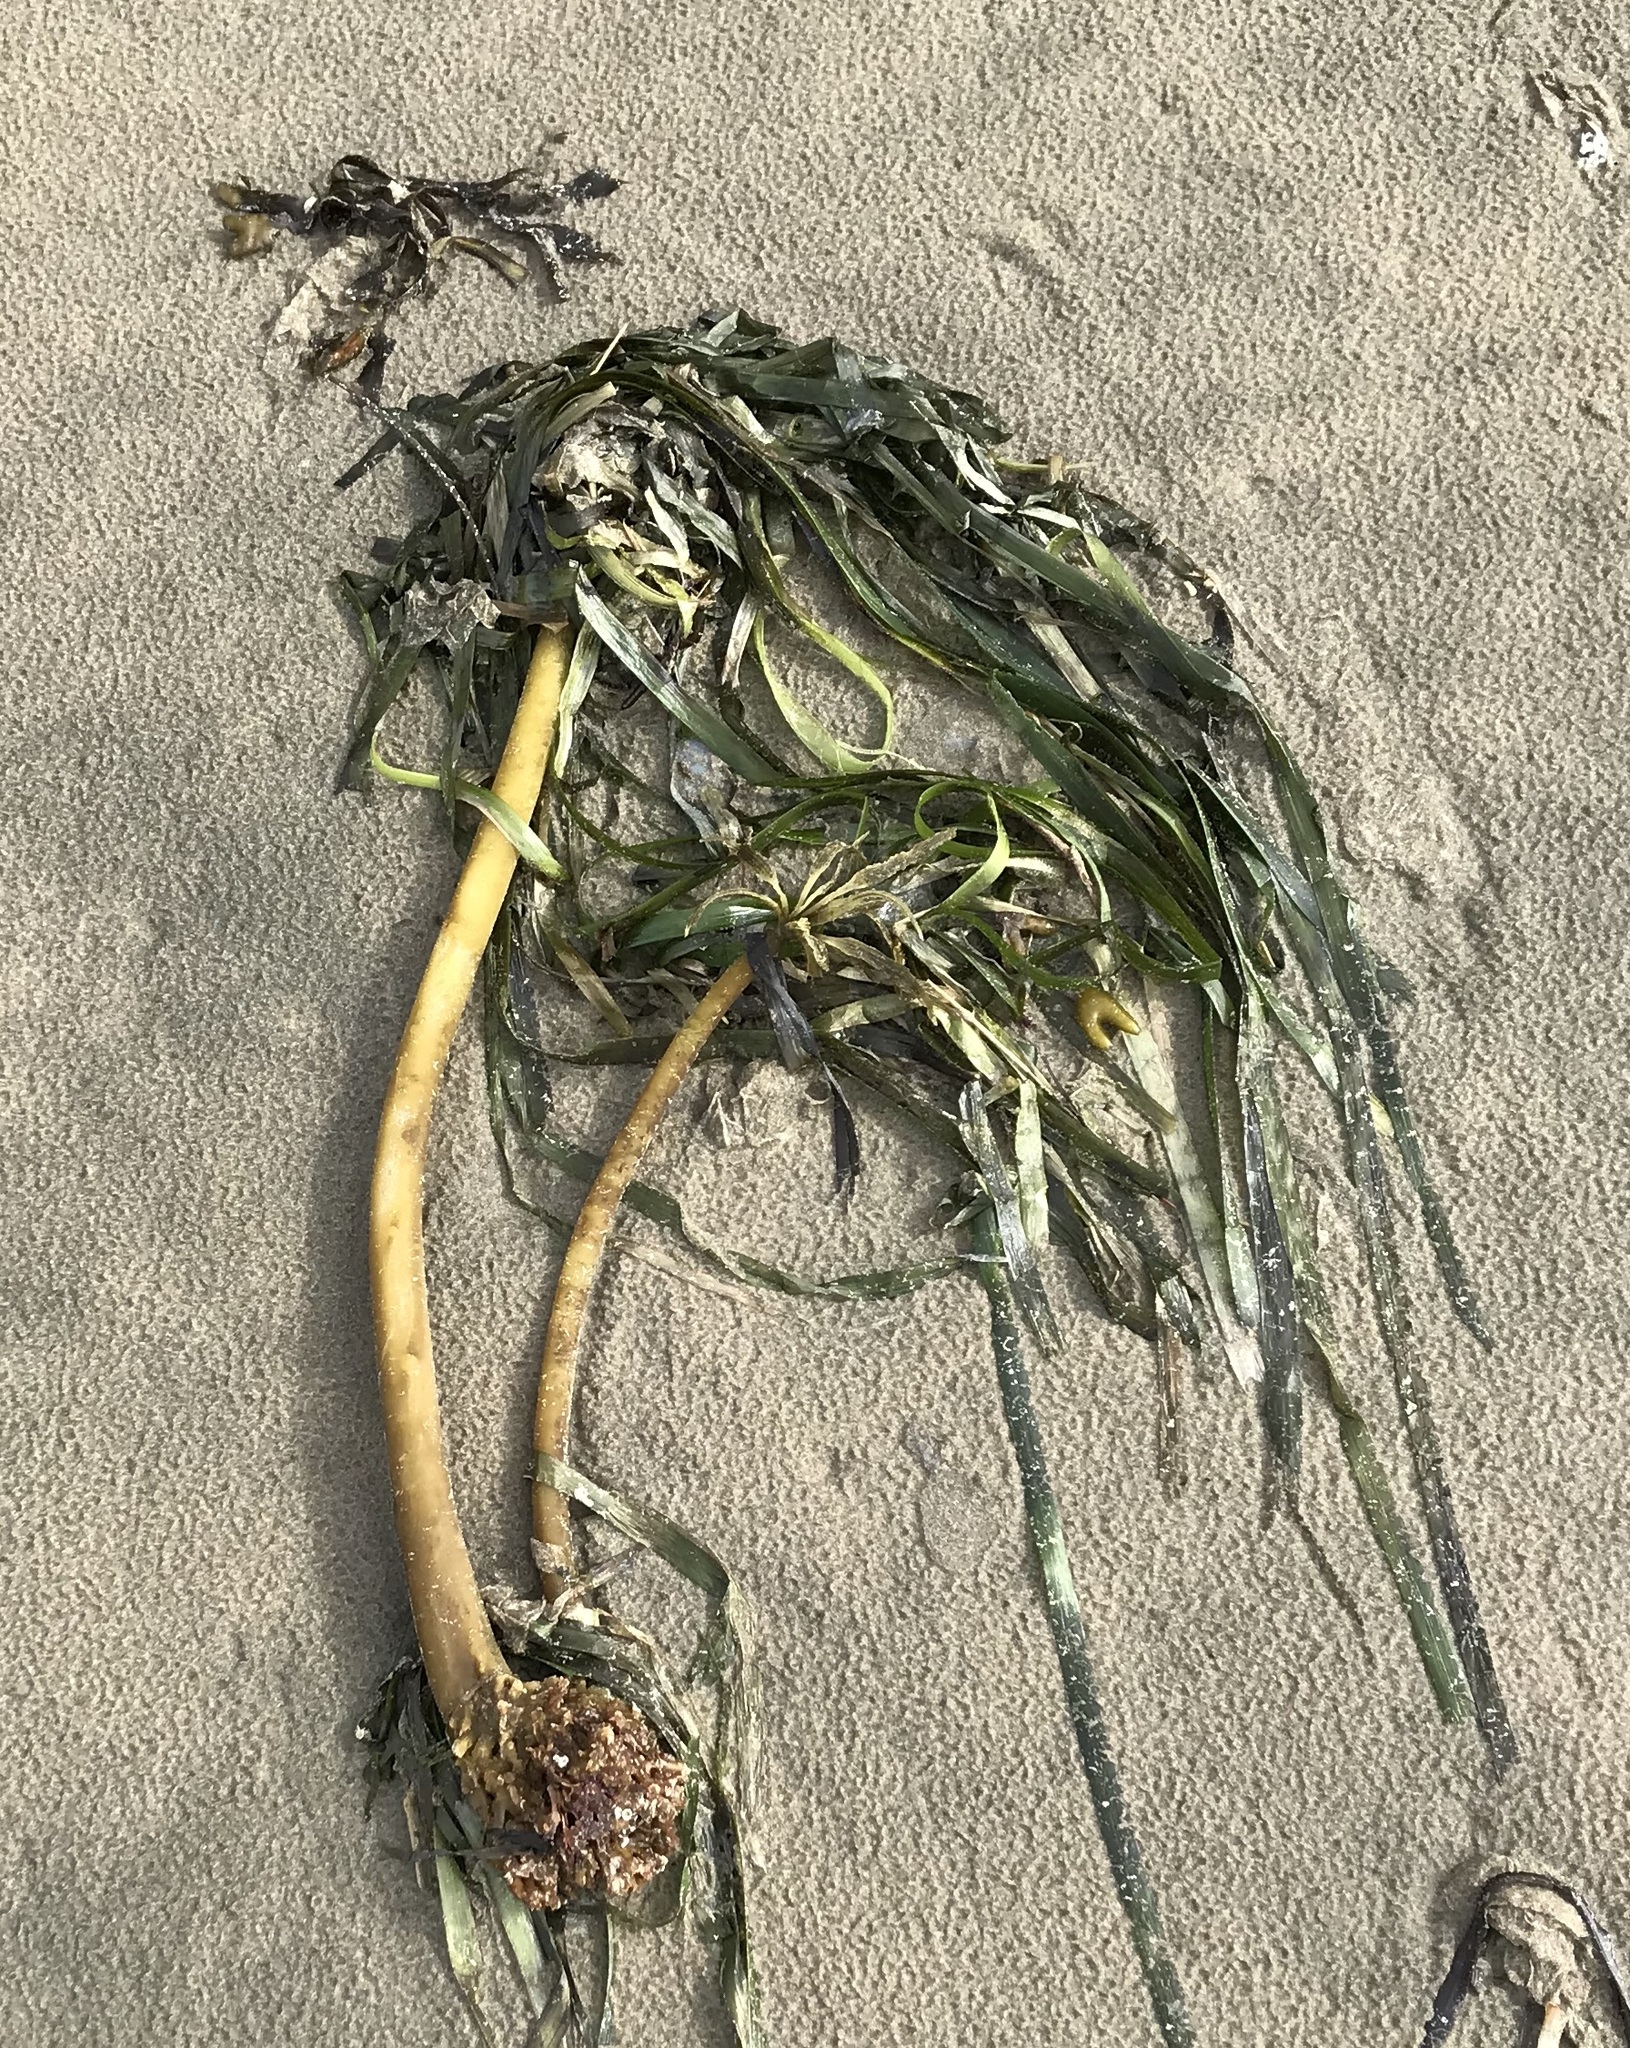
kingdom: Chromista
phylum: Ochrophyta
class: Phaeophyceae
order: Laminariales
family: Laminariaceae
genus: Postelsia
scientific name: Postelsia palmiformis
